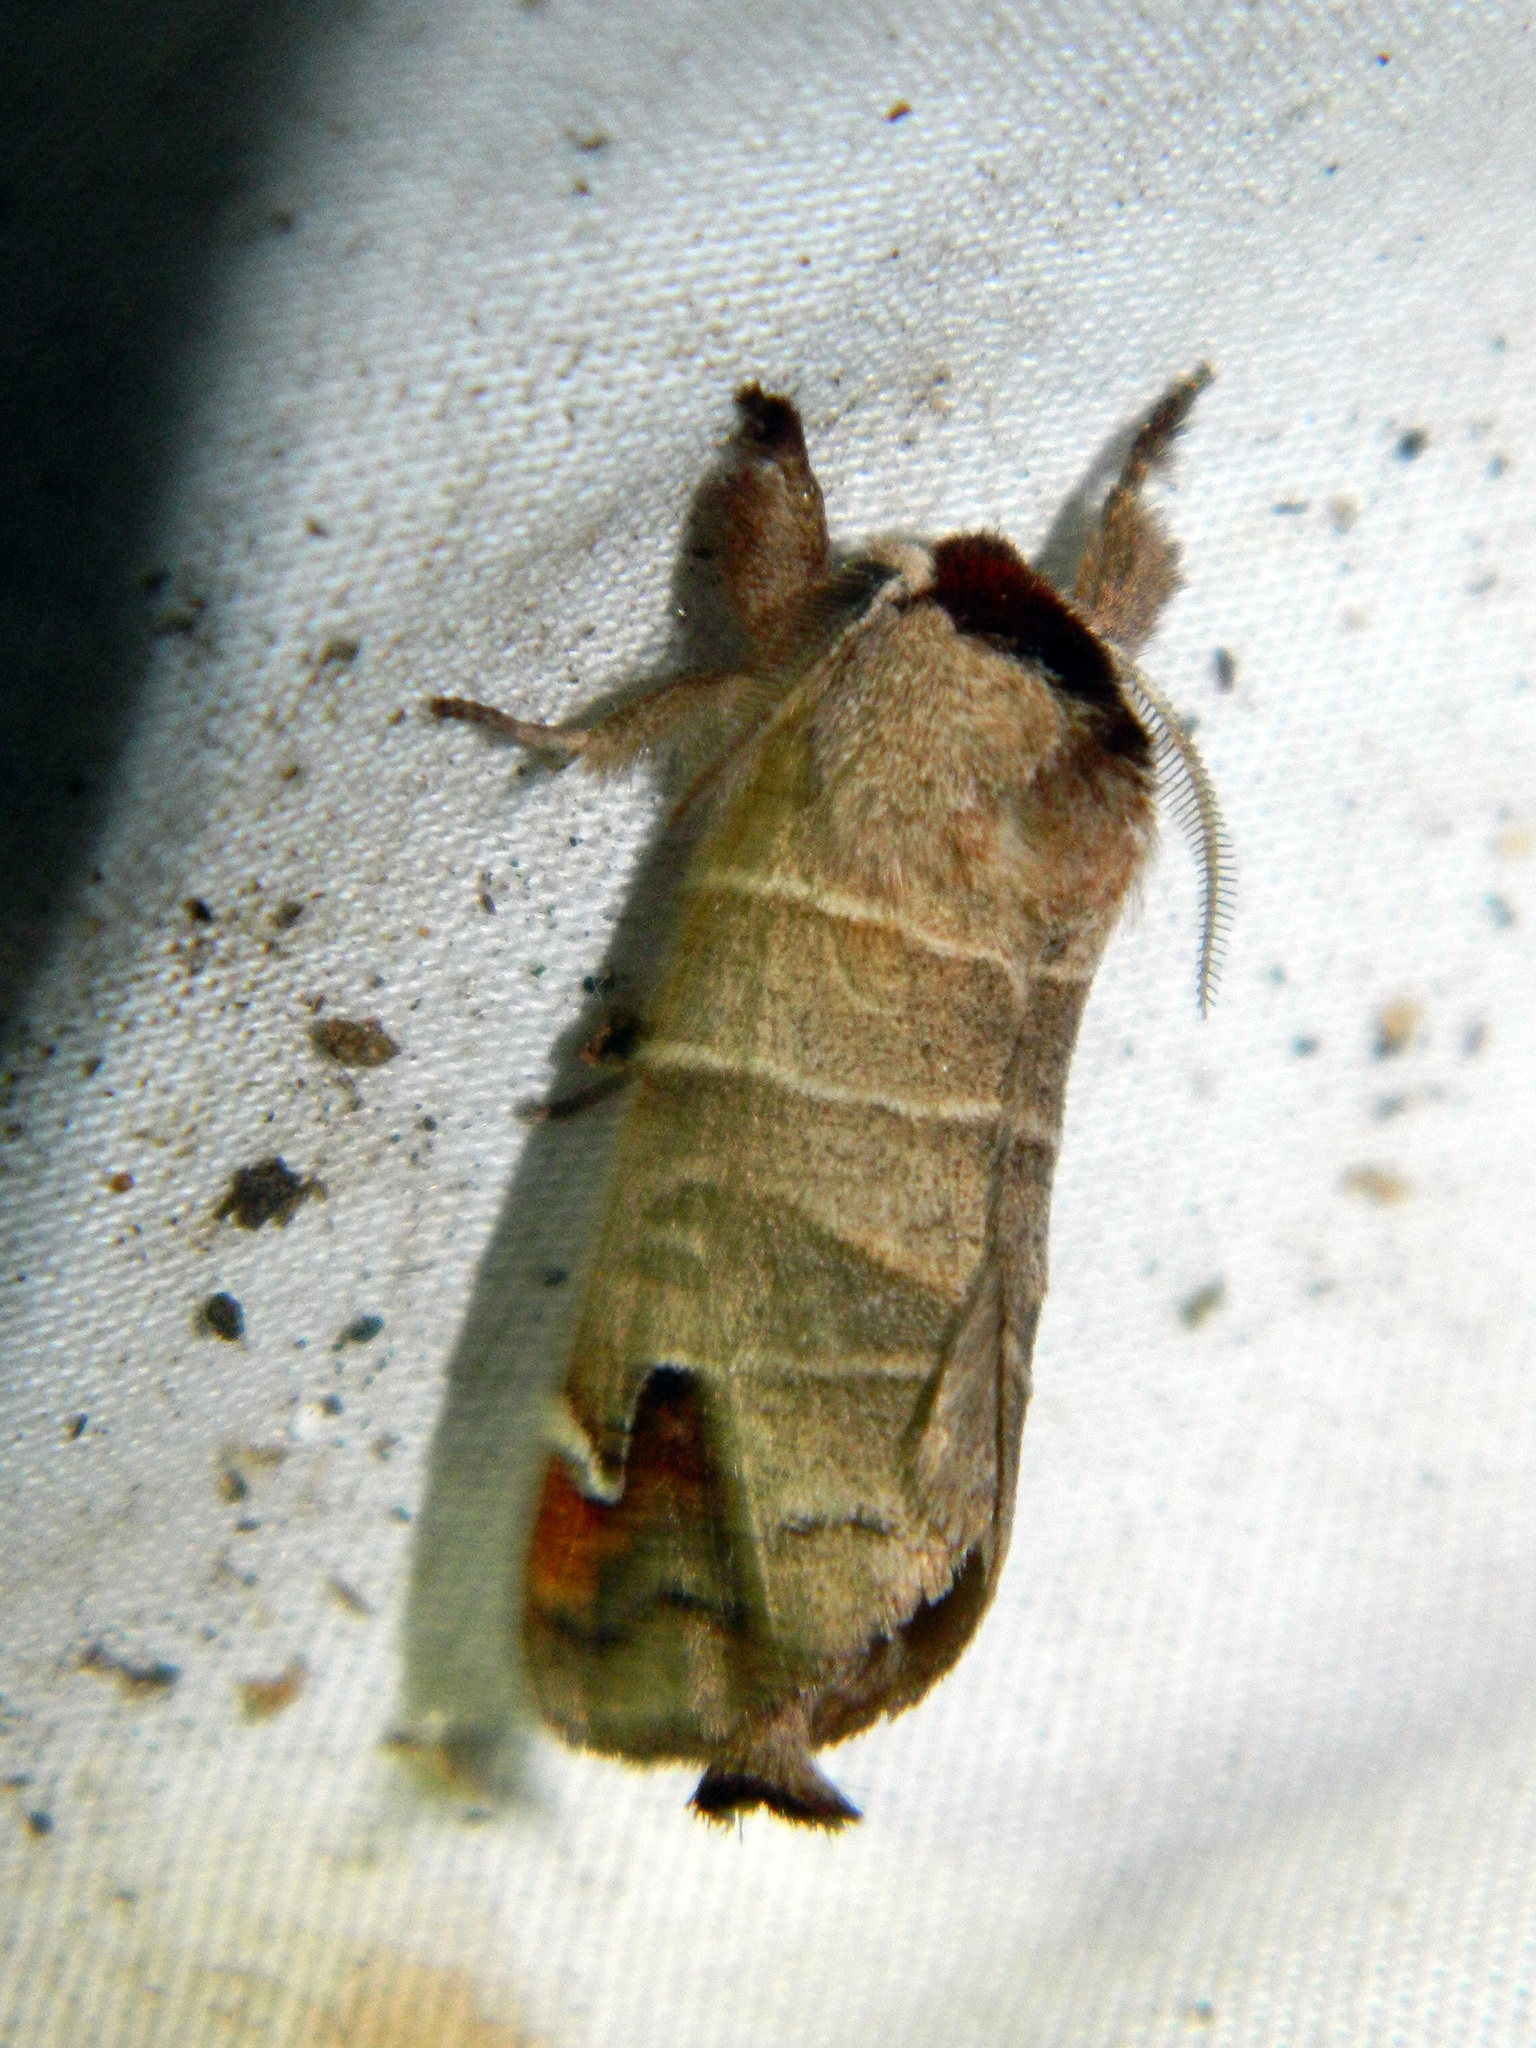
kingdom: Animalia
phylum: Arthropoda
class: Insecta
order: Lepidoptera
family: Notodontidae
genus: Clostera
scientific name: Clostera albosigma
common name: Sigmoid prominent
